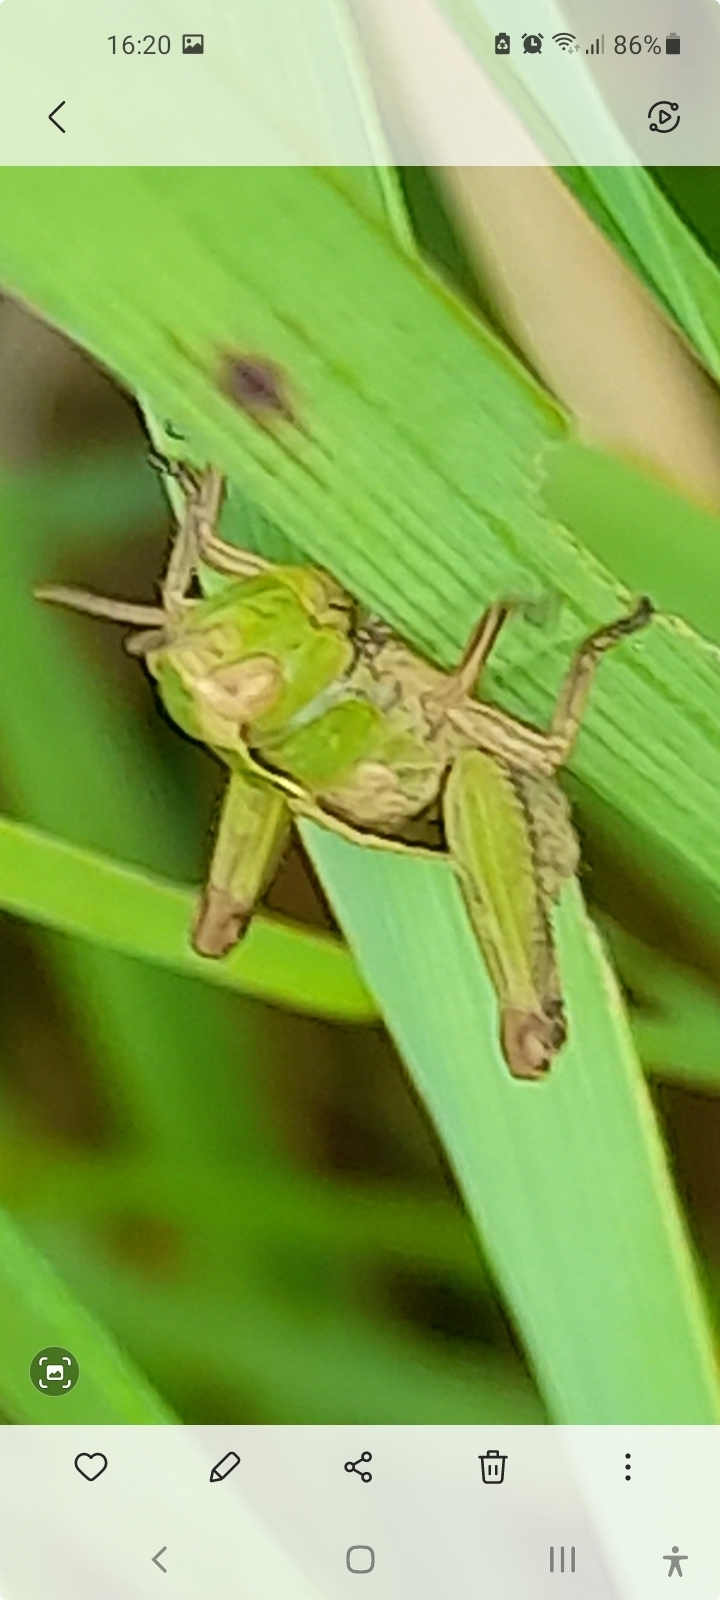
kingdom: Animalia
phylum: Arthropoda
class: Insecta
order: Orthoptera
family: Acrididae
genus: Omocestus
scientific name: Omocestus viridulus
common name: Common green grasshopper
